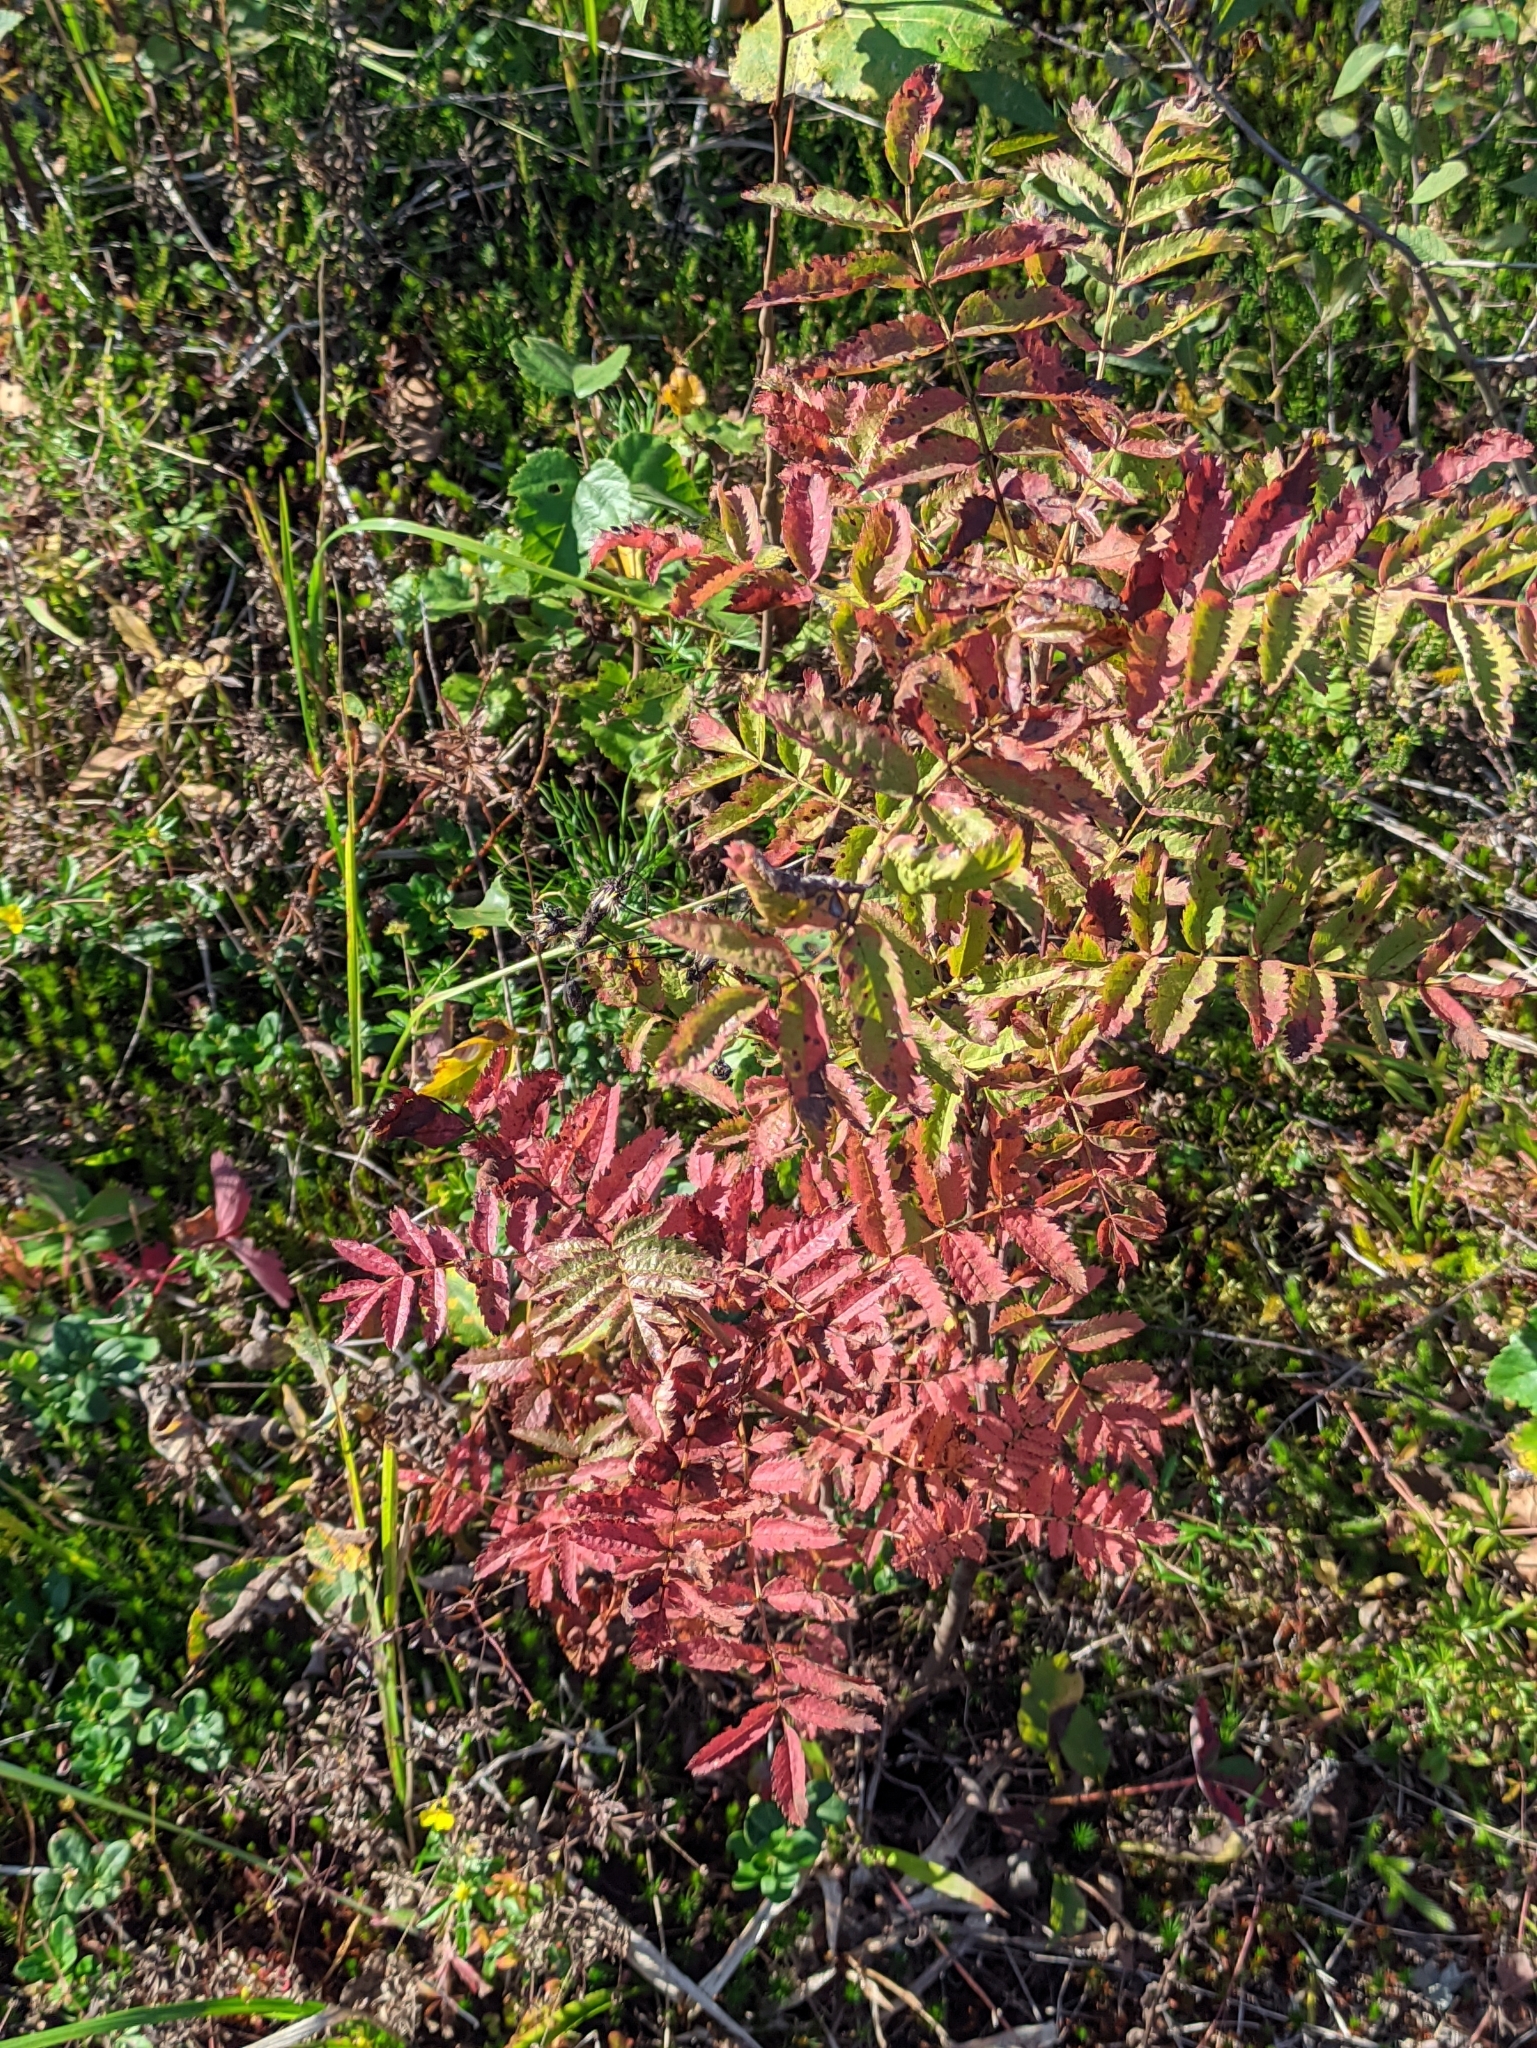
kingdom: Plantae
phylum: Tracheophyta
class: Magnoliopsida
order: Rosales
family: Rosaceae
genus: Sorbus
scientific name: Sorbus aucuparia
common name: Rowan
